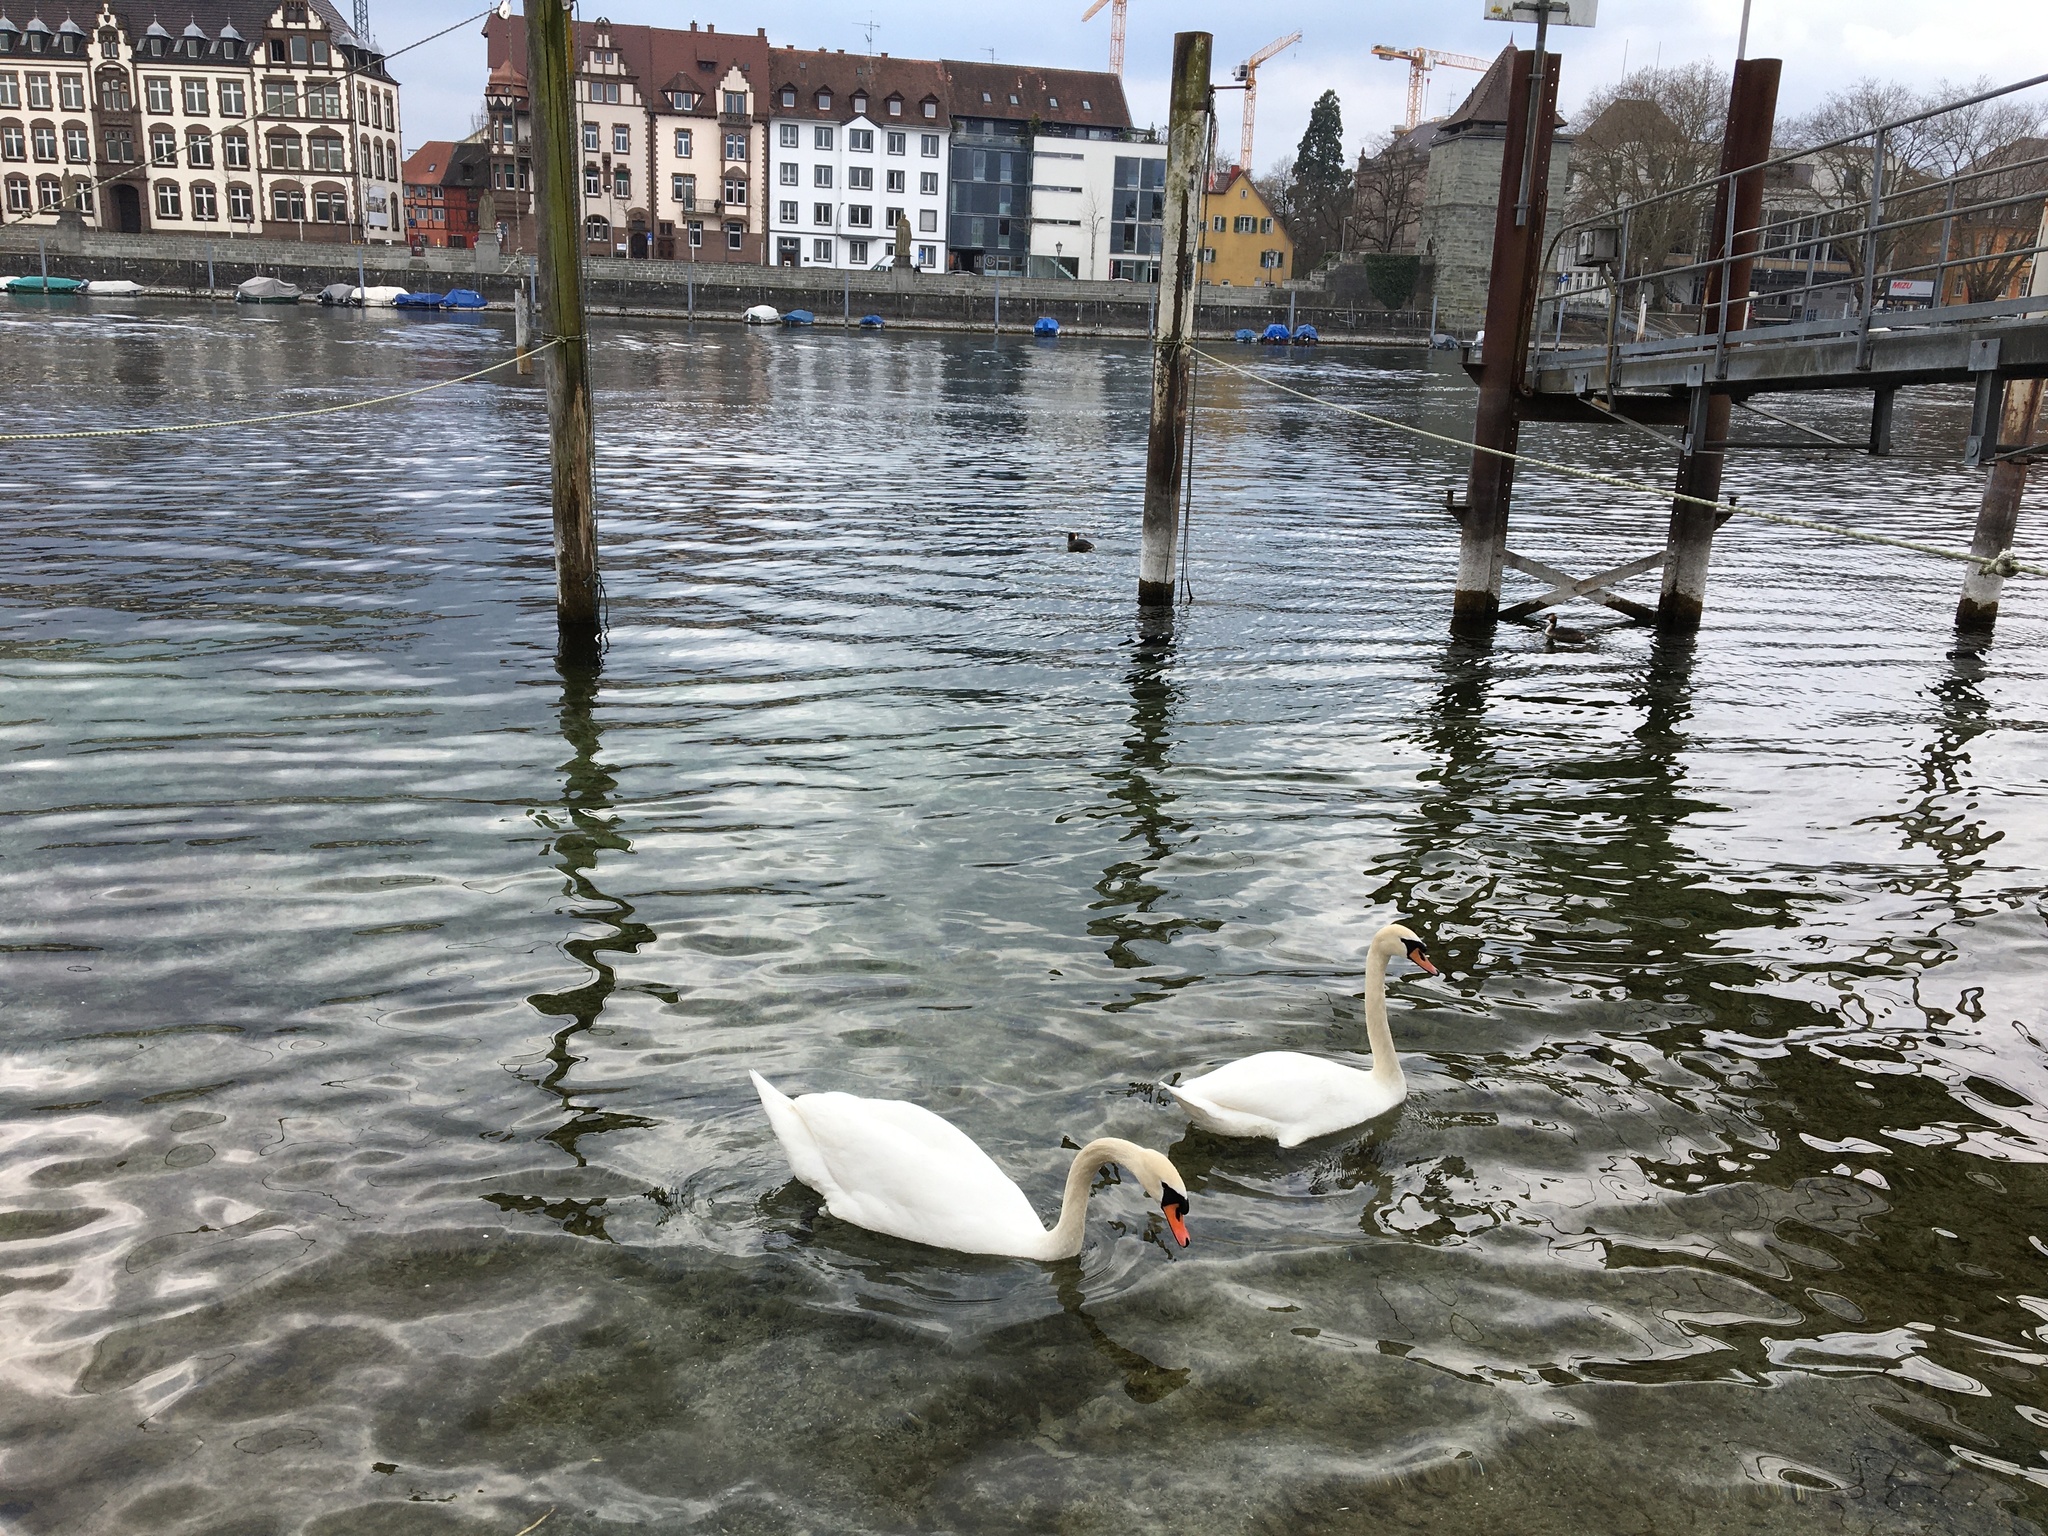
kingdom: Animalia
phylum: Chordata
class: Aves
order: Anseriformes
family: Anatidae
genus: Cygnus
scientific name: Cygnus olor
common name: Mute swan
